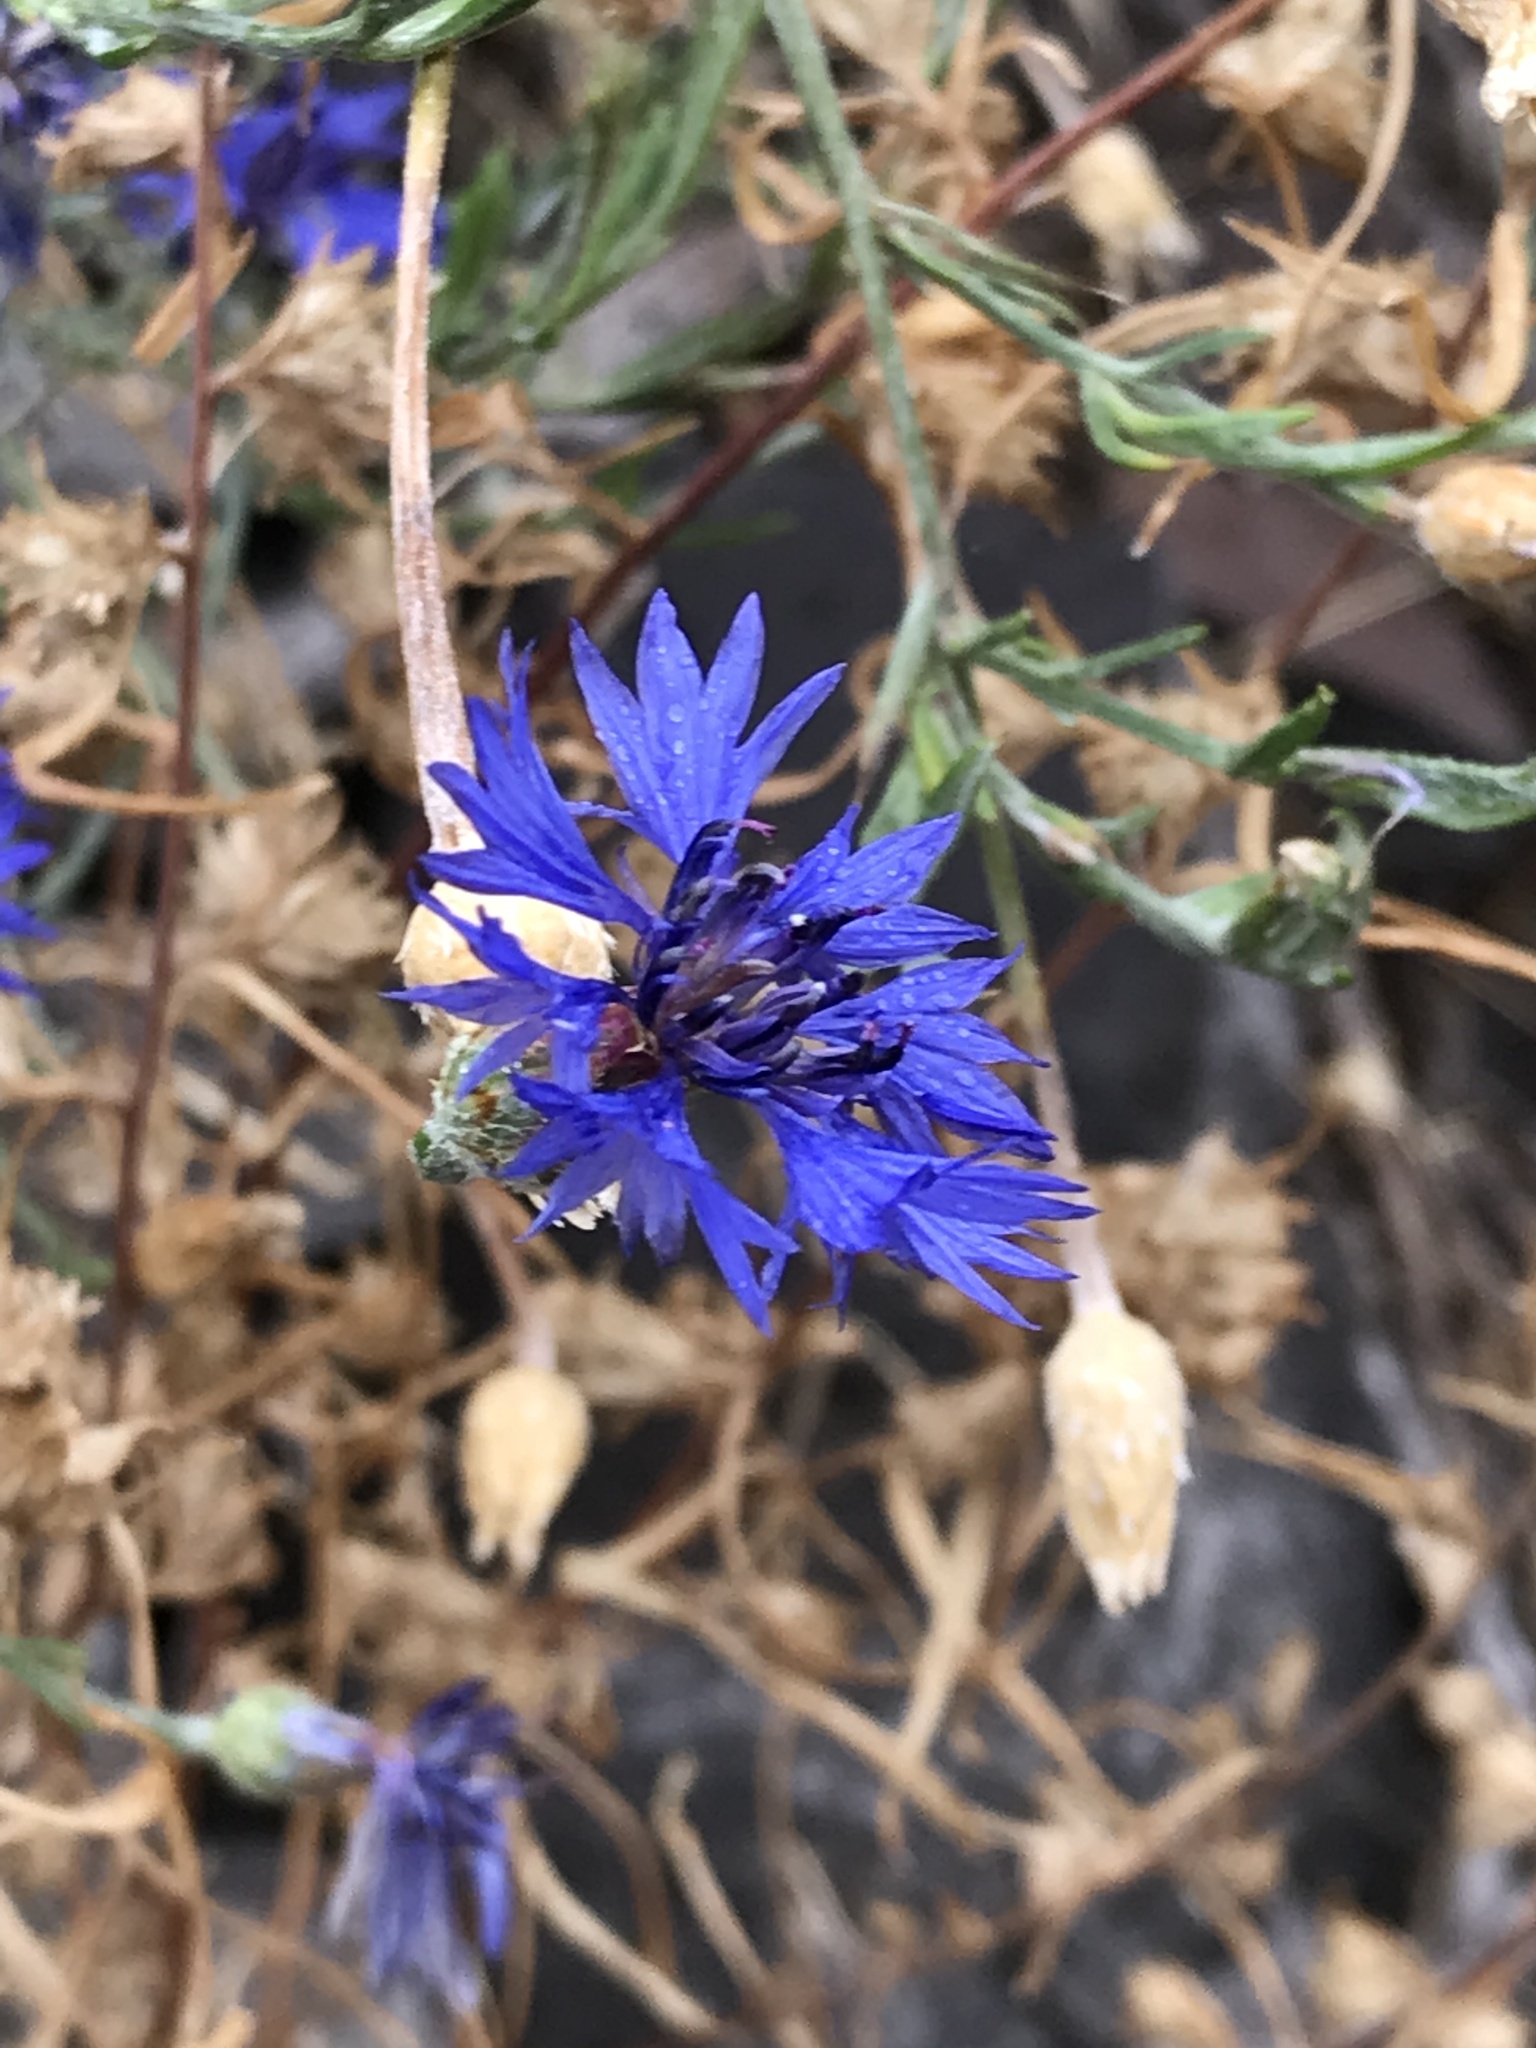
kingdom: Plantae
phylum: Tracheophyta
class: Magnoliopsida
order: Asterales
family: Asteraceae
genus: Centaurea
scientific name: Centaurea cyanus
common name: Cornflower
